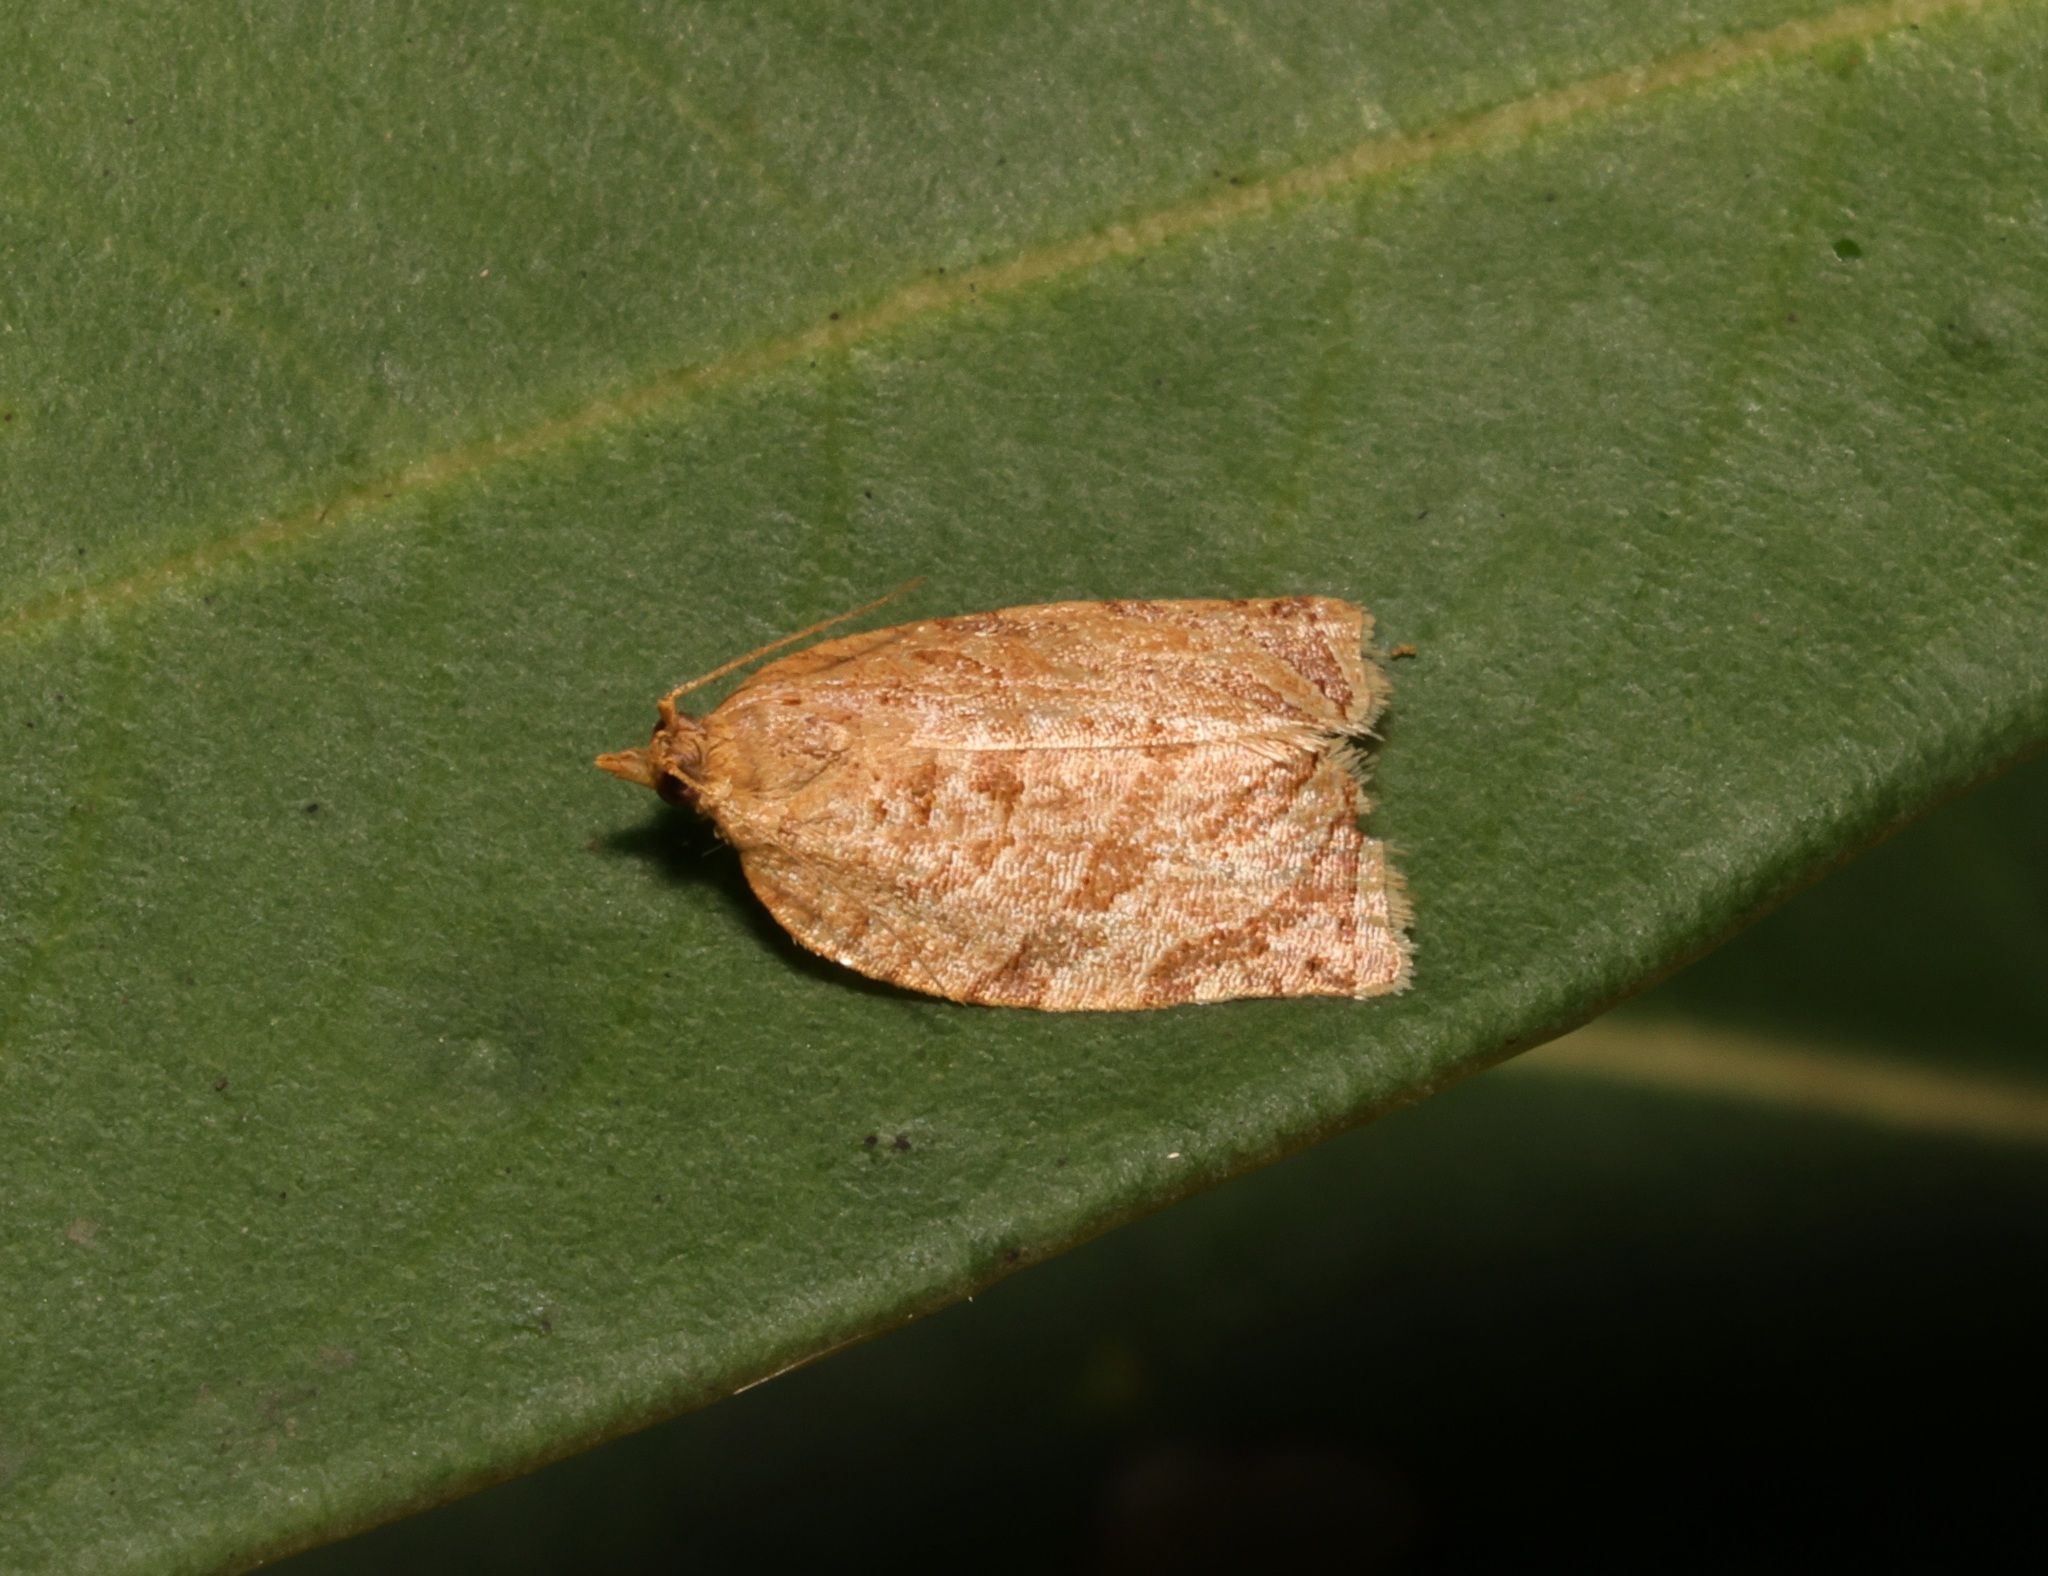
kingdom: Animalia
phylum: Arthropoda
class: Insecta
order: Lepidoptera
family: Tortricidae
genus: Adoxophyes
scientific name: Adoxophyes privatana
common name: Asian orchid tortrix
